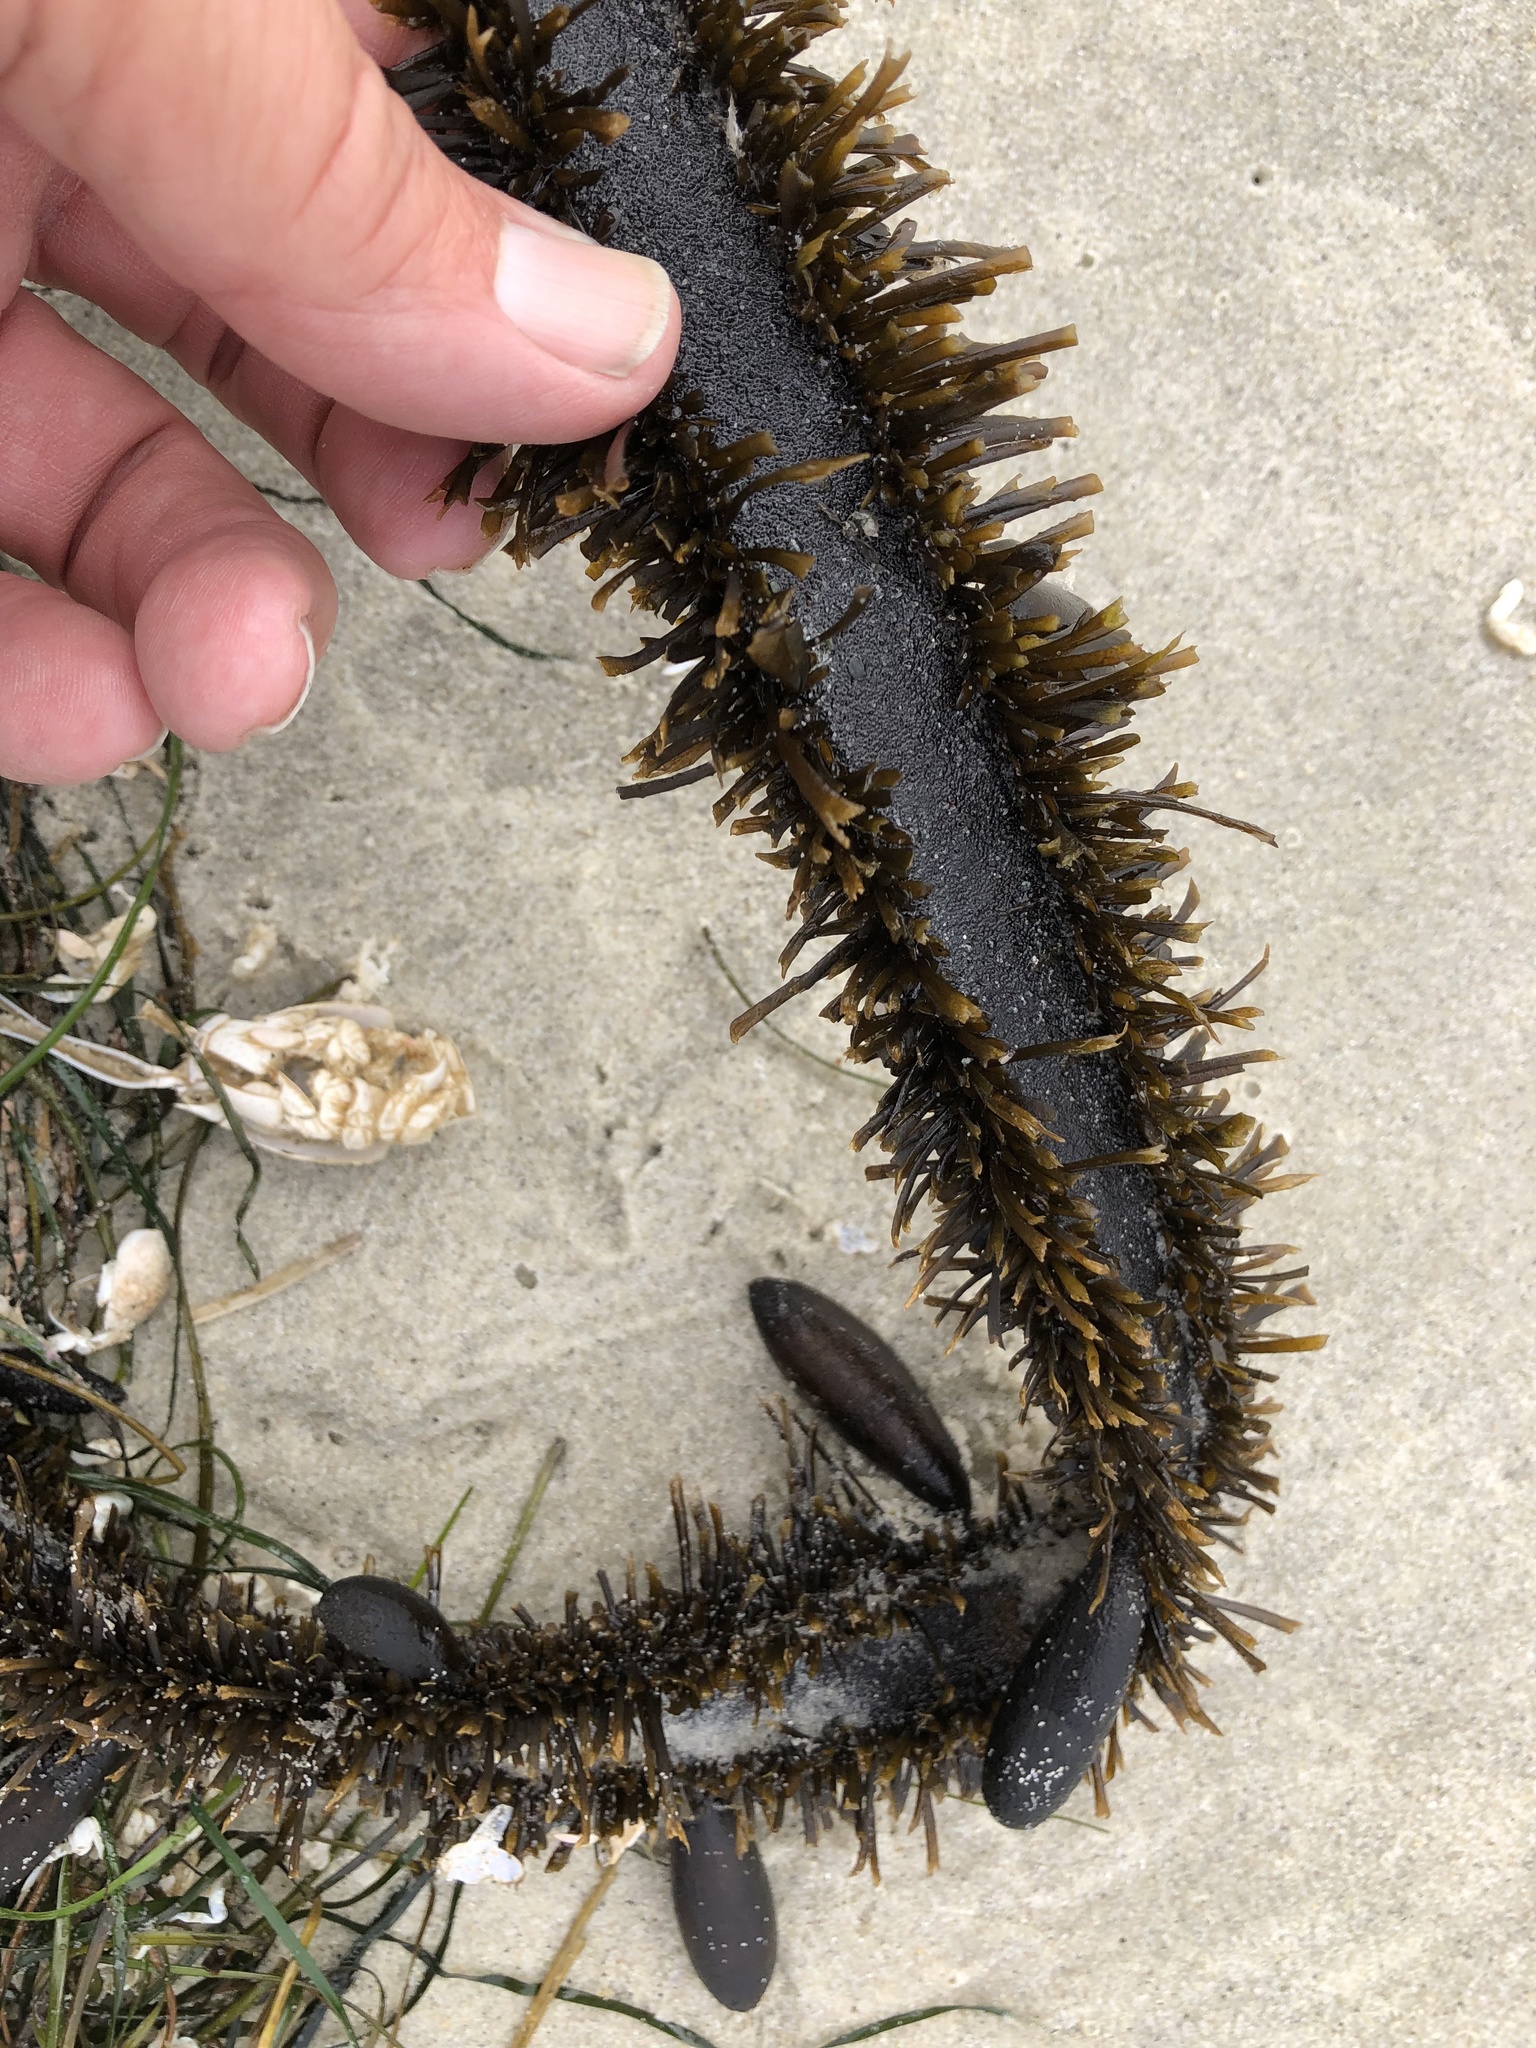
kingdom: Chromista
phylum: Ochrophyta
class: Phaeophyceae
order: Laminariales
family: Lessoniaceae
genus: Egregia
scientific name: Egregia menziesii
